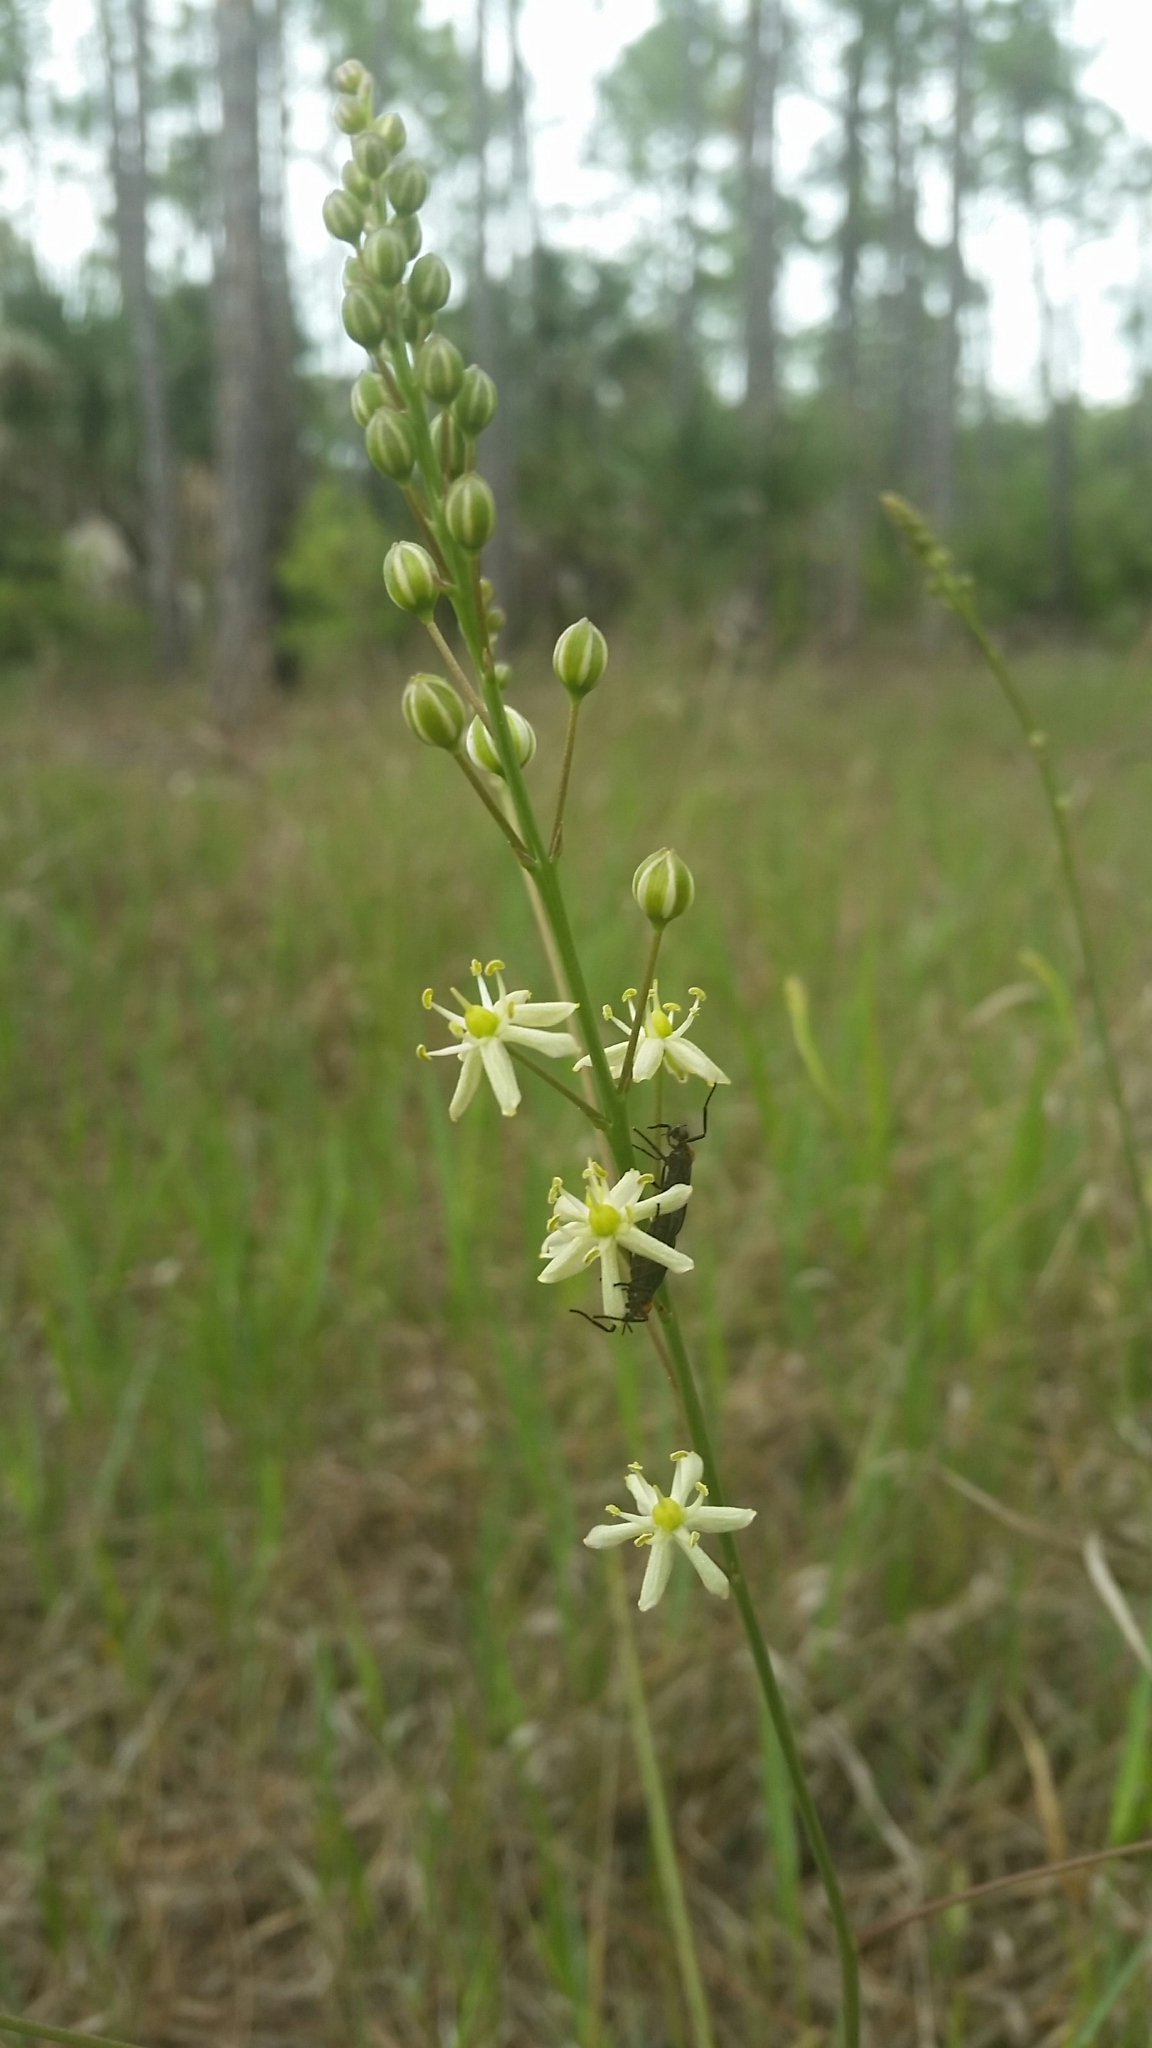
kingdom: Plantae
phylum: Tracheophyta
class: Liliopsida
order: Asparagales
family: Asparagaceae
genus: Schoenolirion
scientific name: Schoenolirion albiflorum
